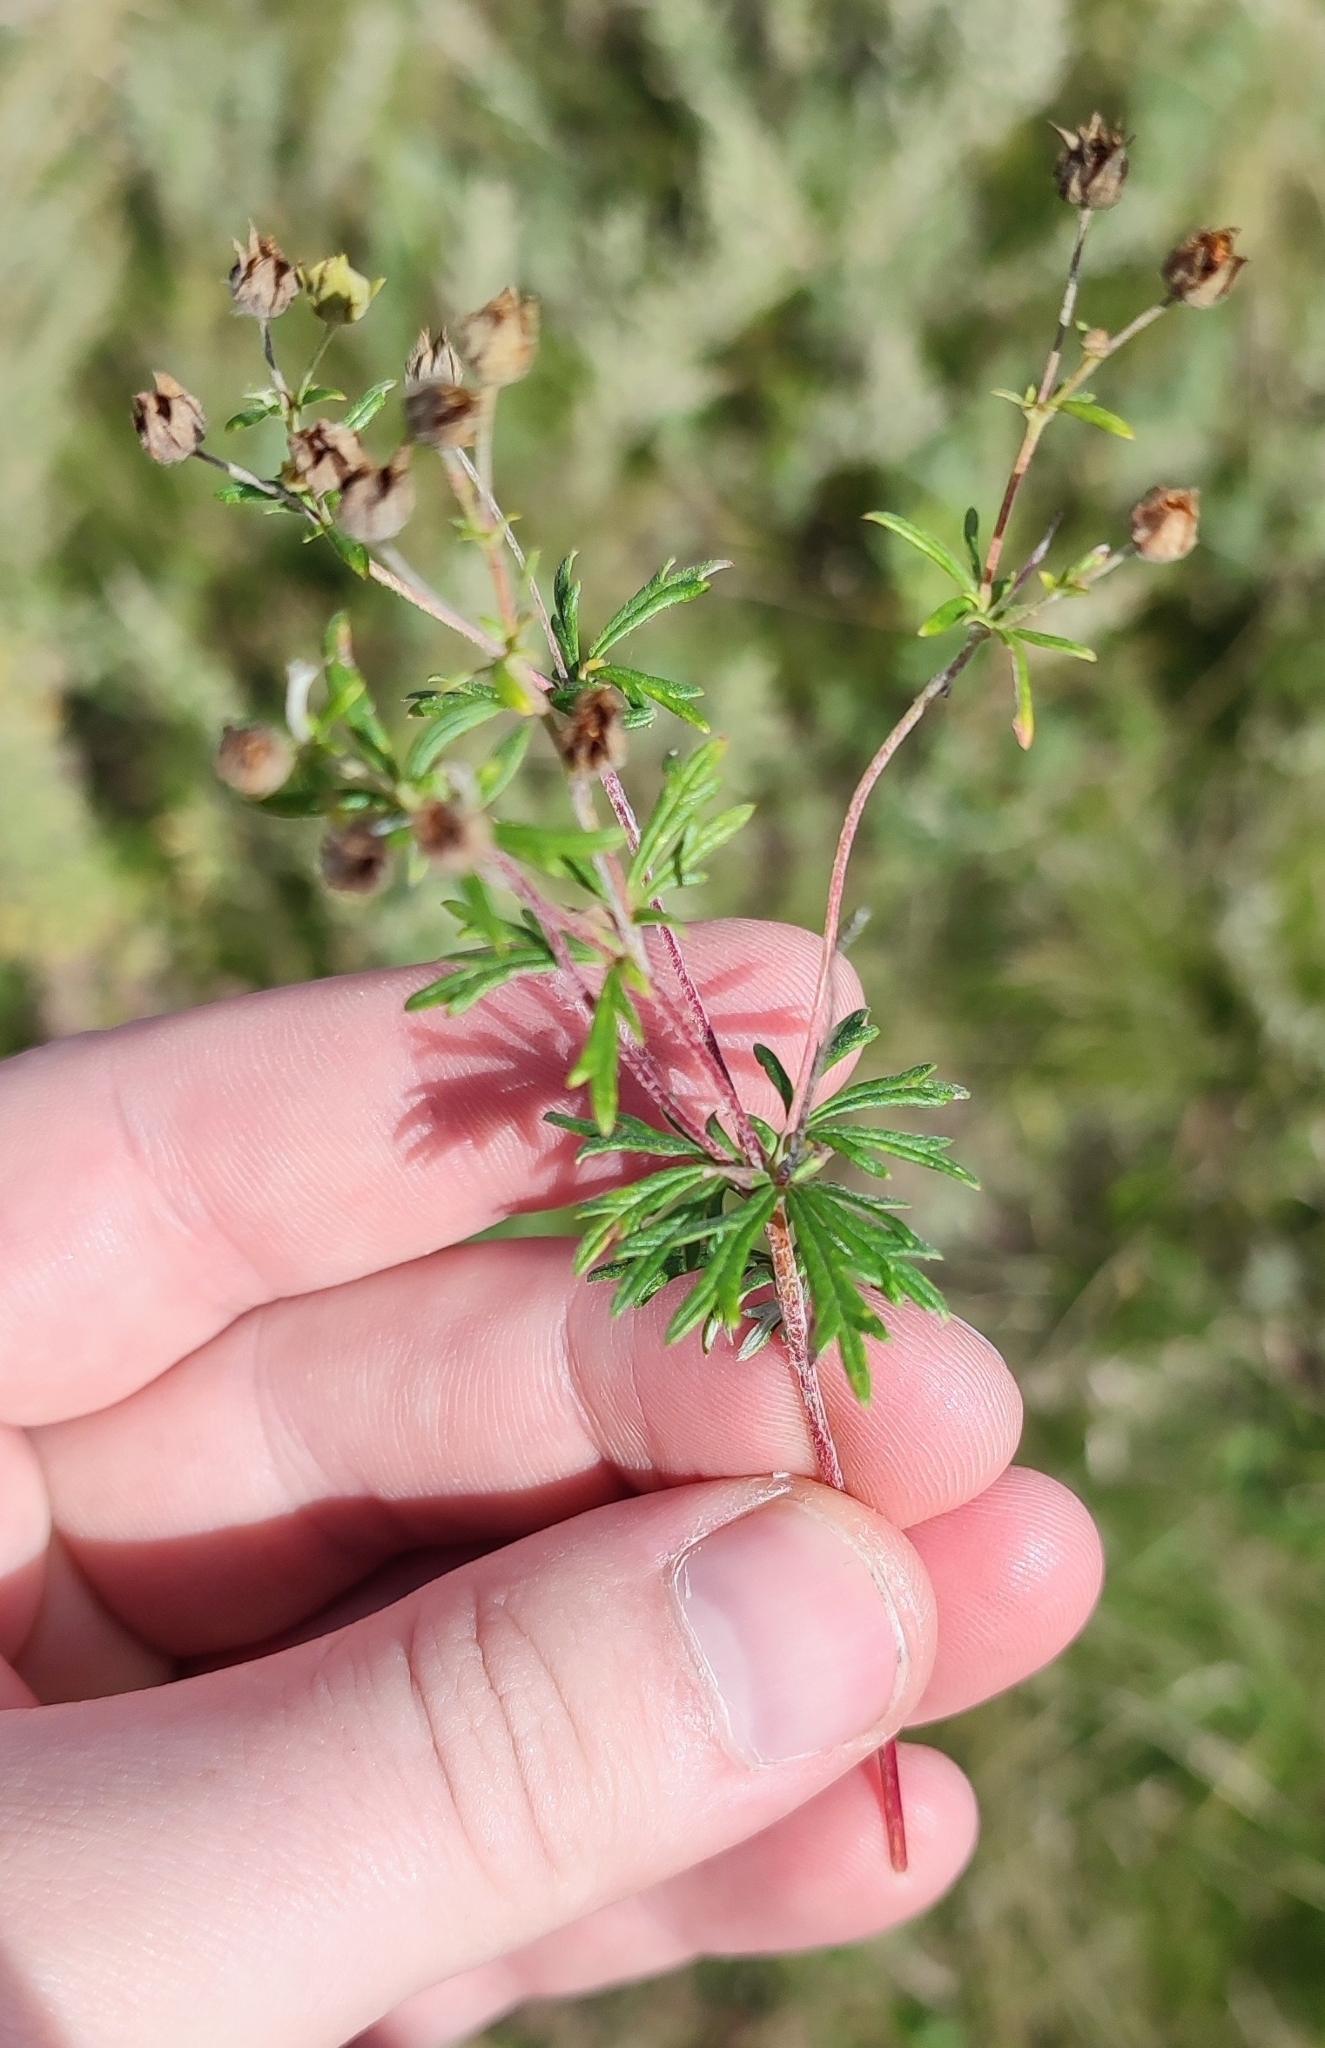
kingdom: Plantae
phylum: Tracheophyta
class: Magnoliopsida
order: Rosales
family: Rosaceae
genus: Potentilla
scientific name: Potentilla argentea
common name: Hoary cinquefoil
